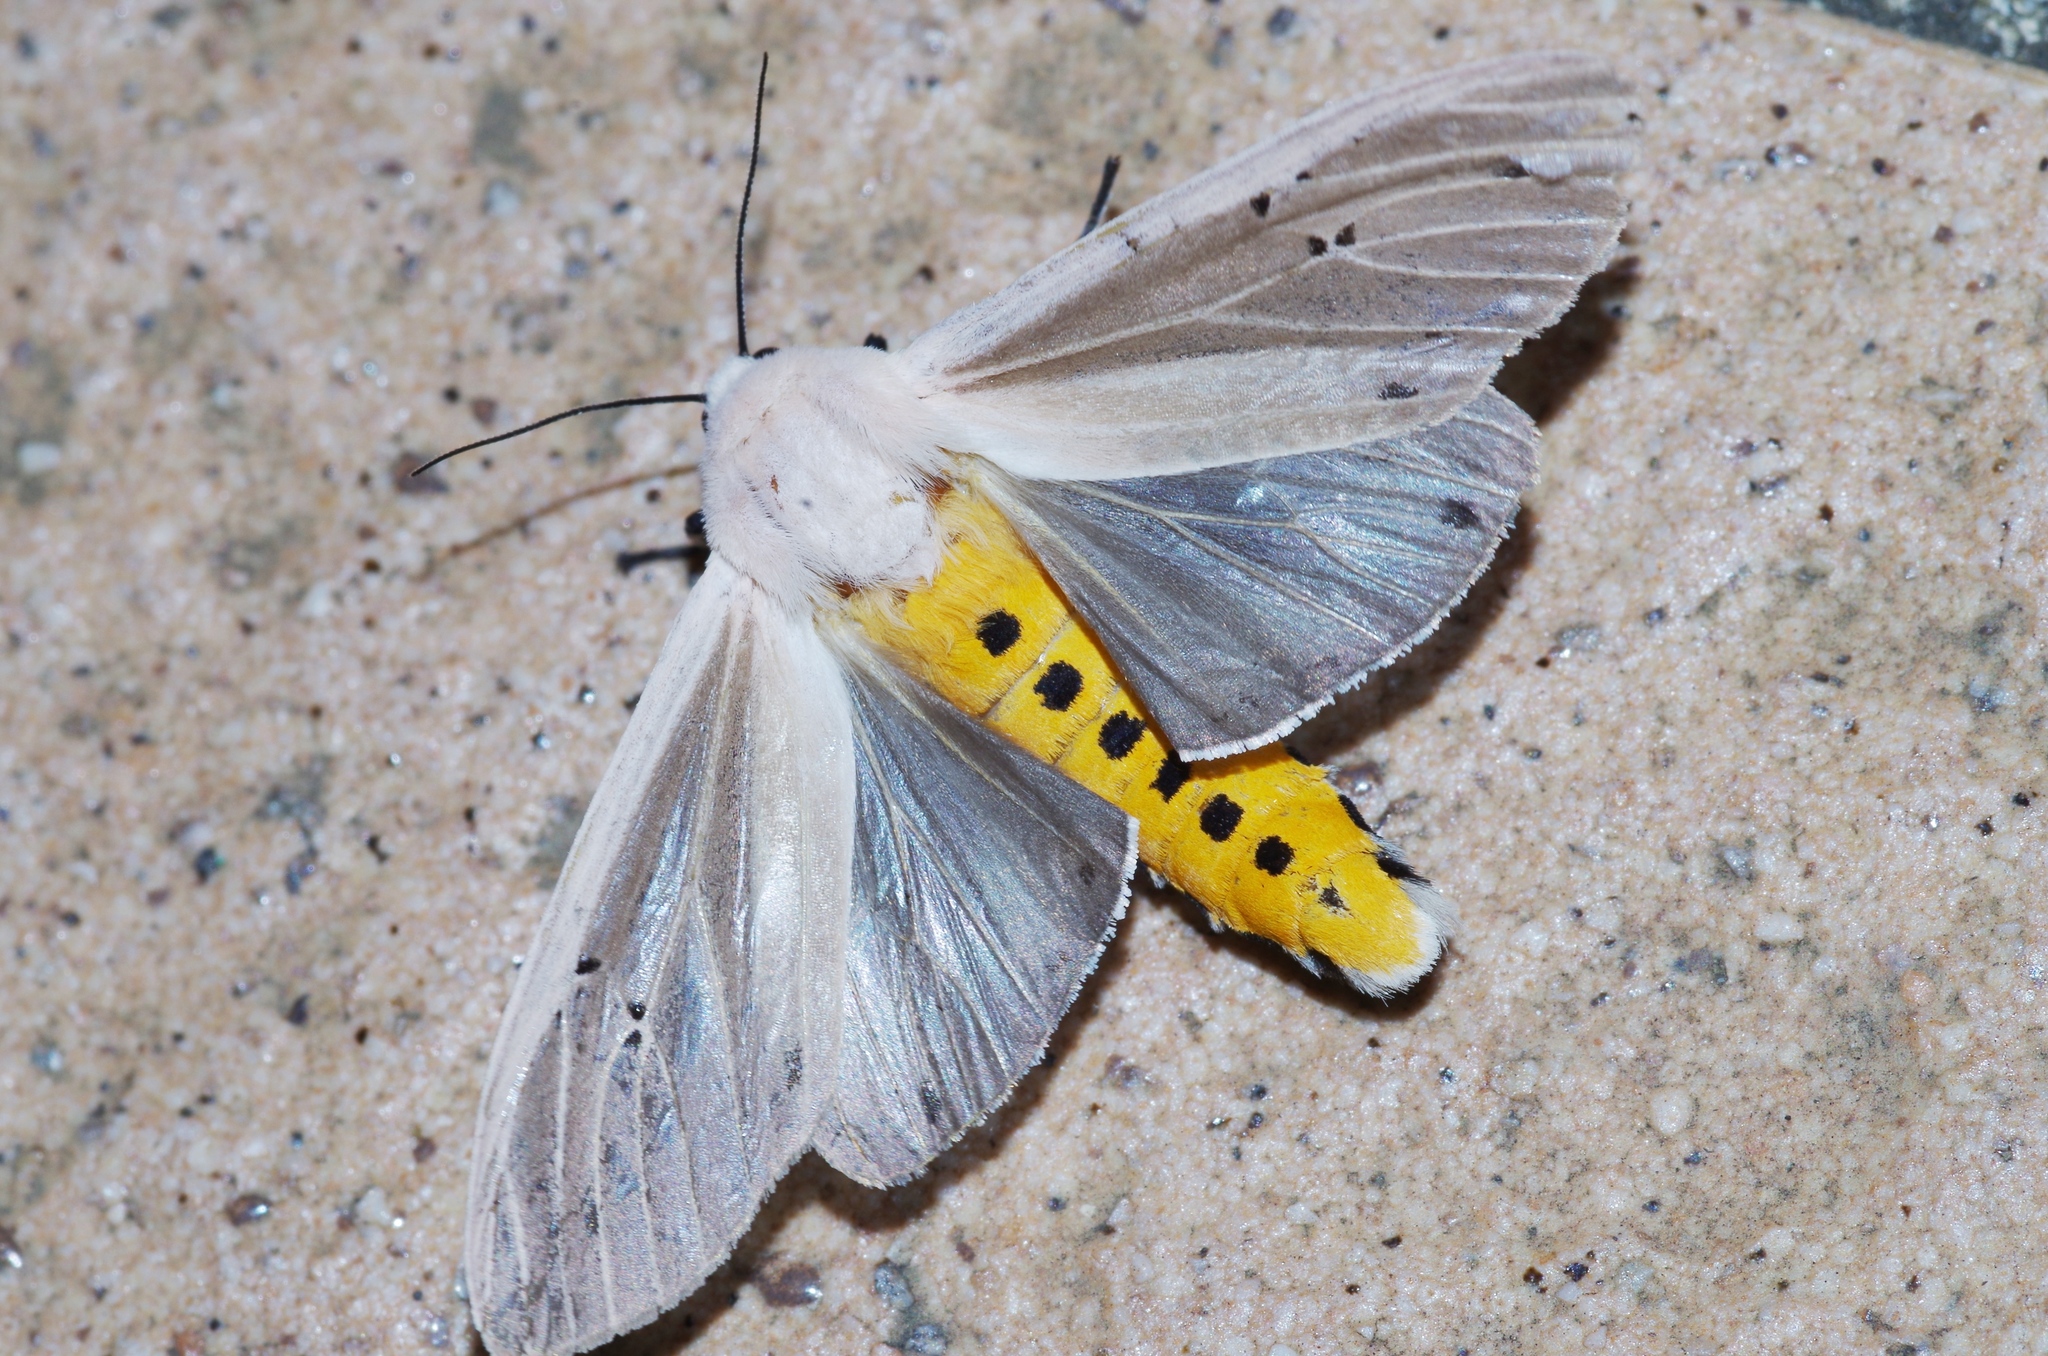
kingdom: Animalia
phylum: Arthropoda
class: Insecta
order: Lepidoptera
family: Erebidae
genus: Creatonotos
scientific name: Creatonotos transiens
